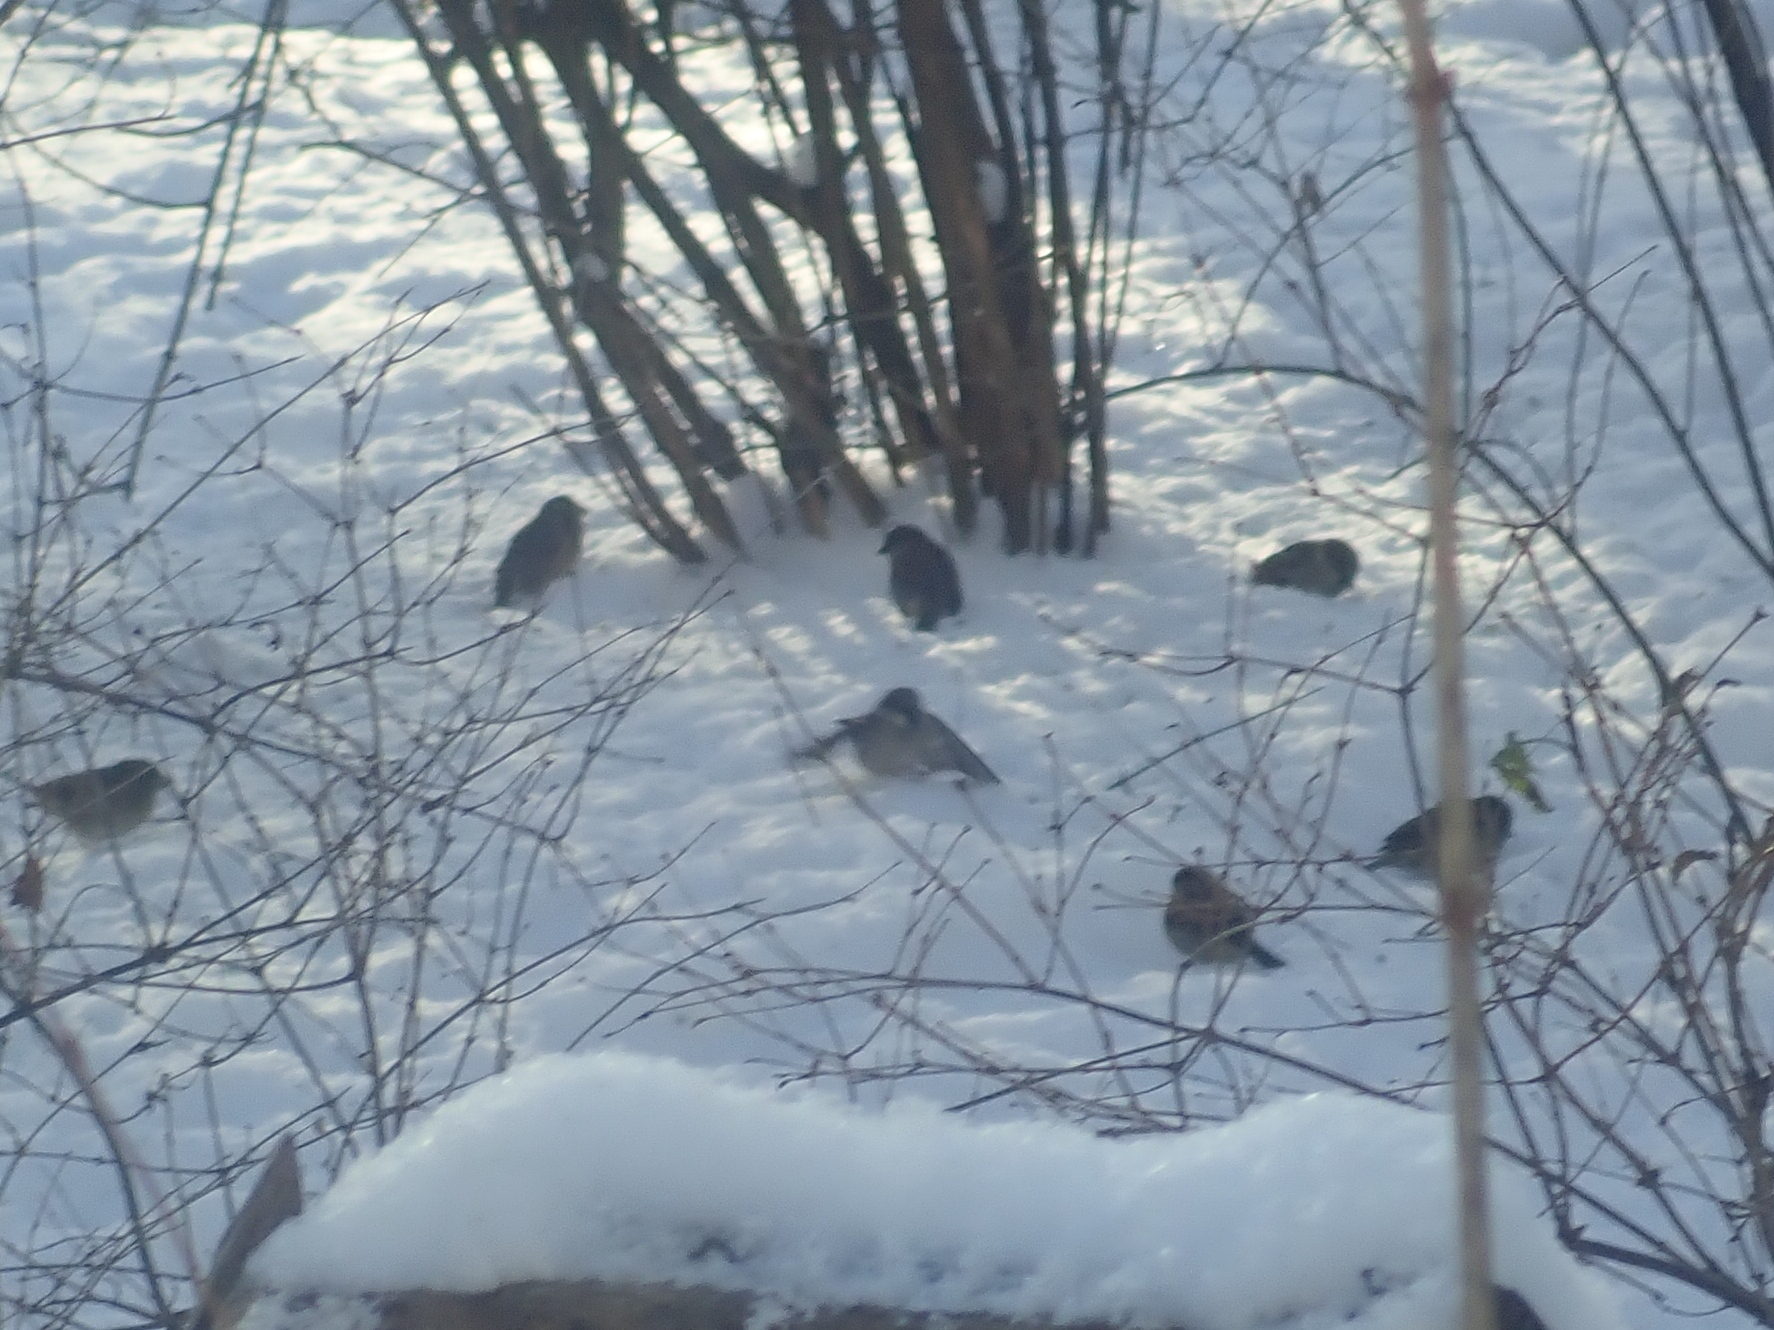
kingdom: Animalia
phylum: Chordata
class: Aves
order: Passeriformes
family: Passeridae
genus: Passer
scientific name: Passer domesticus
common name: House sparrow
